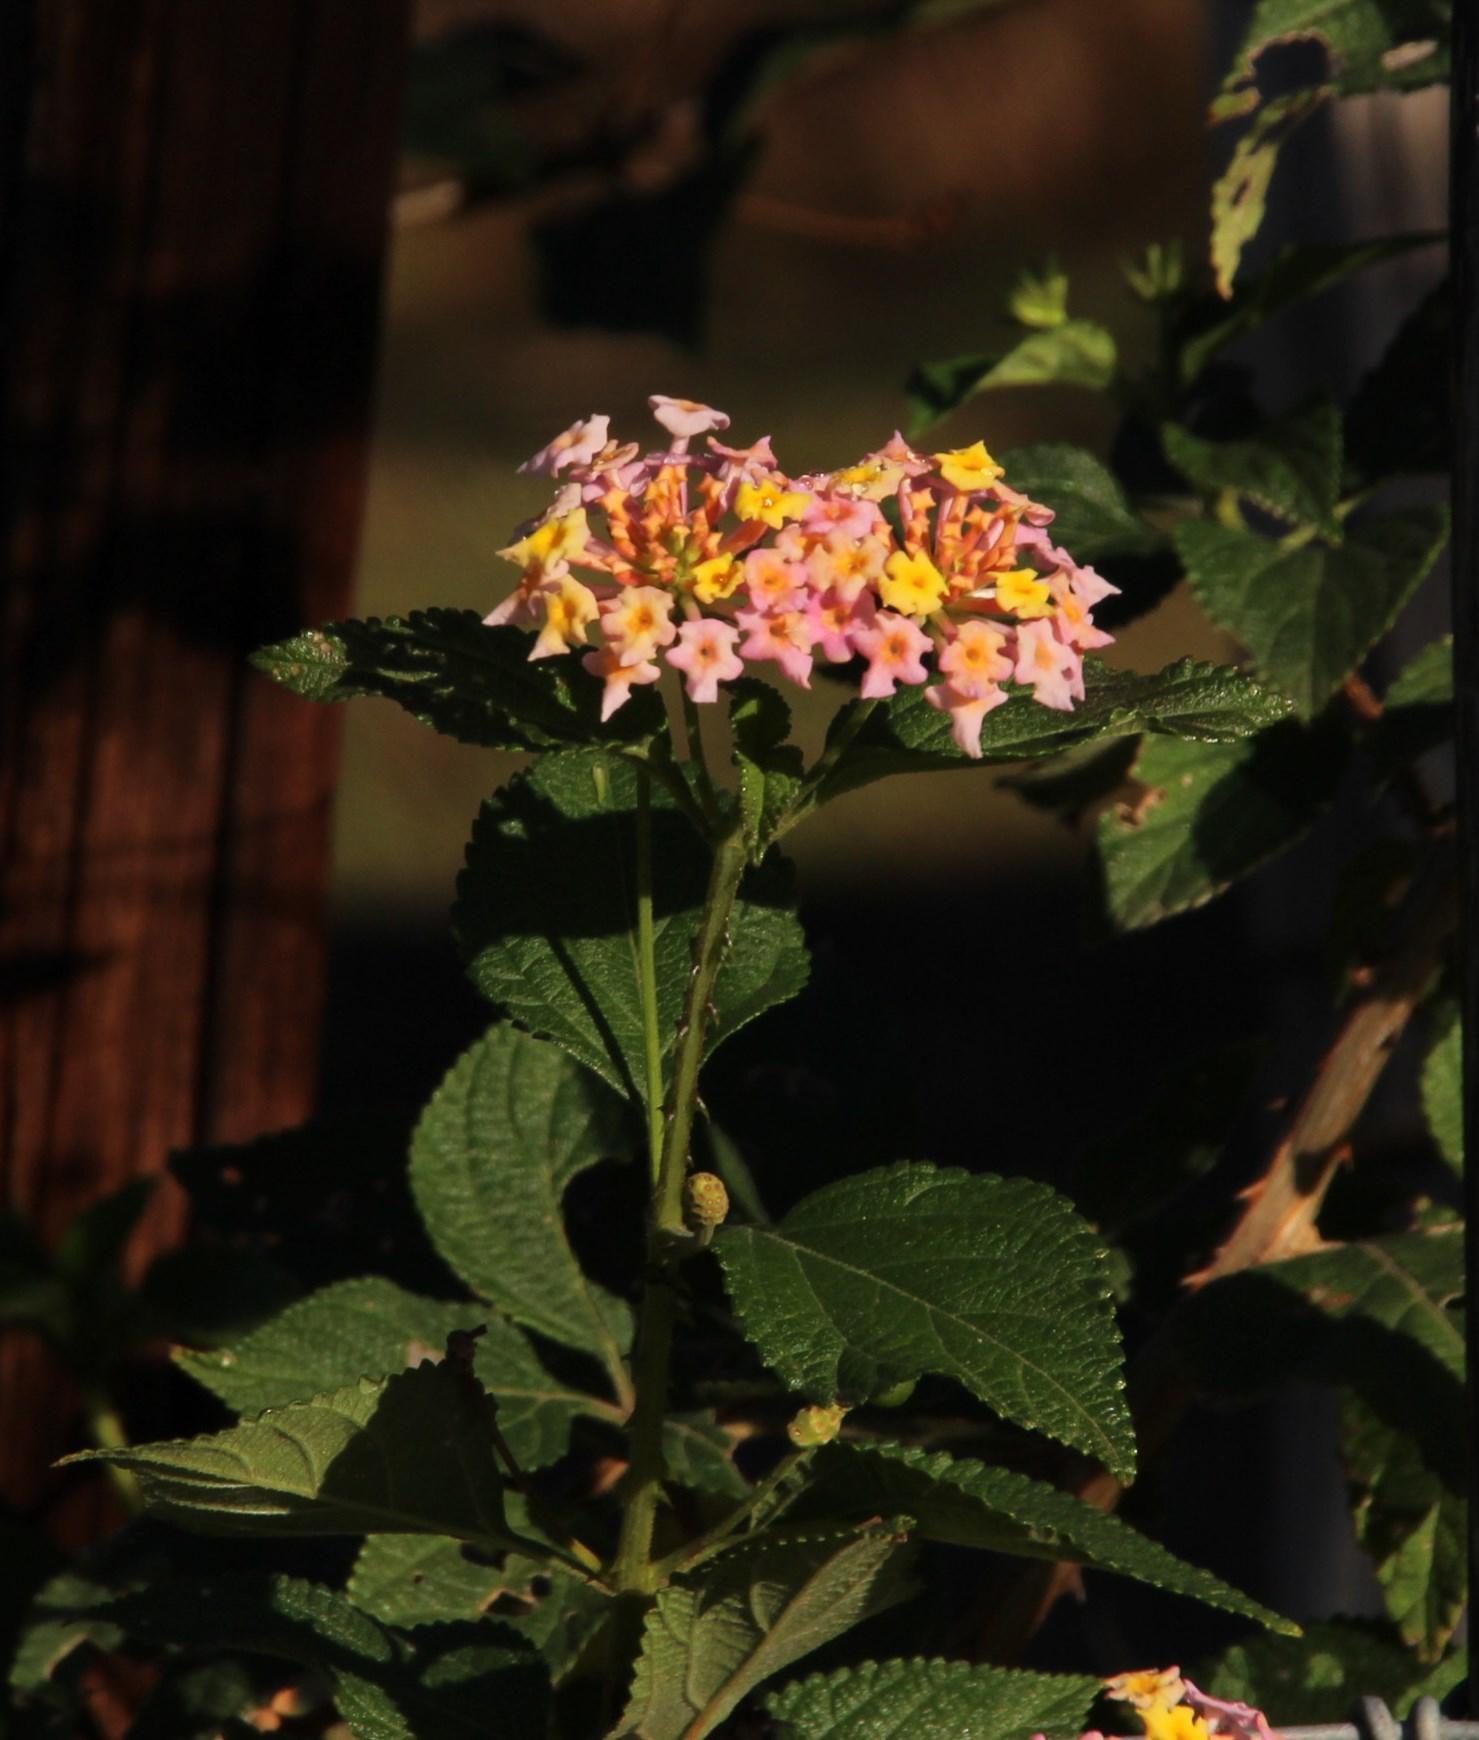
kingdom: Plantae
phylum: Tracheophyta
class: Magnoliopsida
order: Lamiales
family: Verbenaceae
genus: Lantana
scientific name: Lantana camara
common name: Lantana
